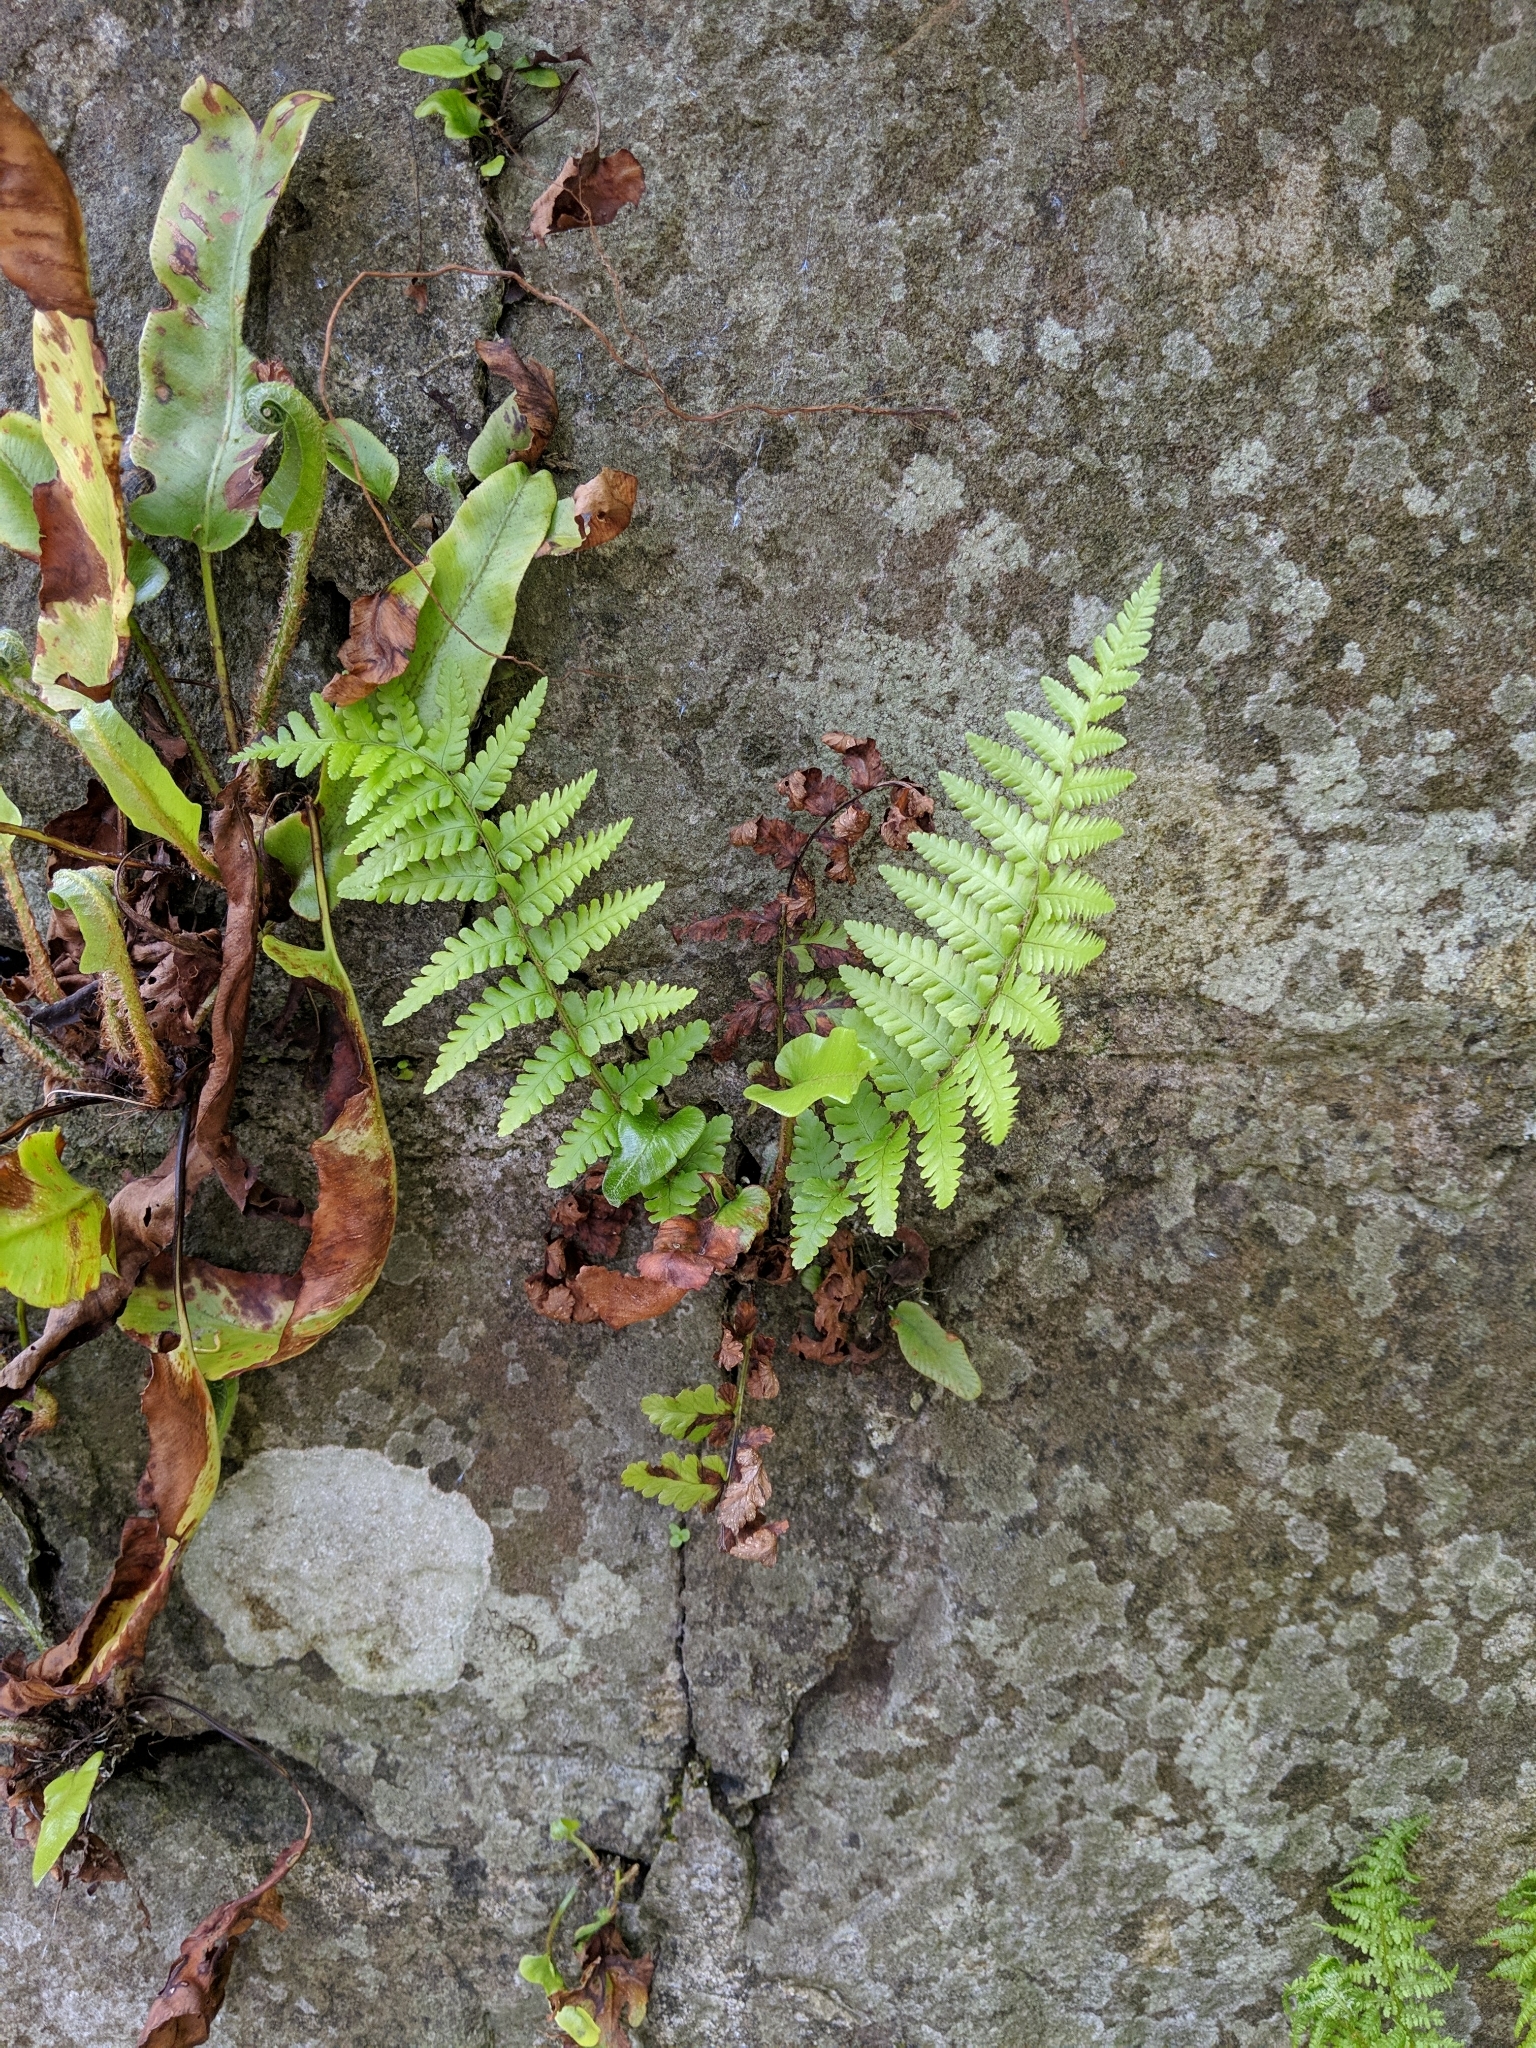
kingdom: Plantae
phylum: Tracheophyta
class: Polypodiopsida
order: Polypodiales
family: Dryopteridaceae
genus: Dryopteris
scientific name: Dryopteris filix-mas
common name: Male fern
